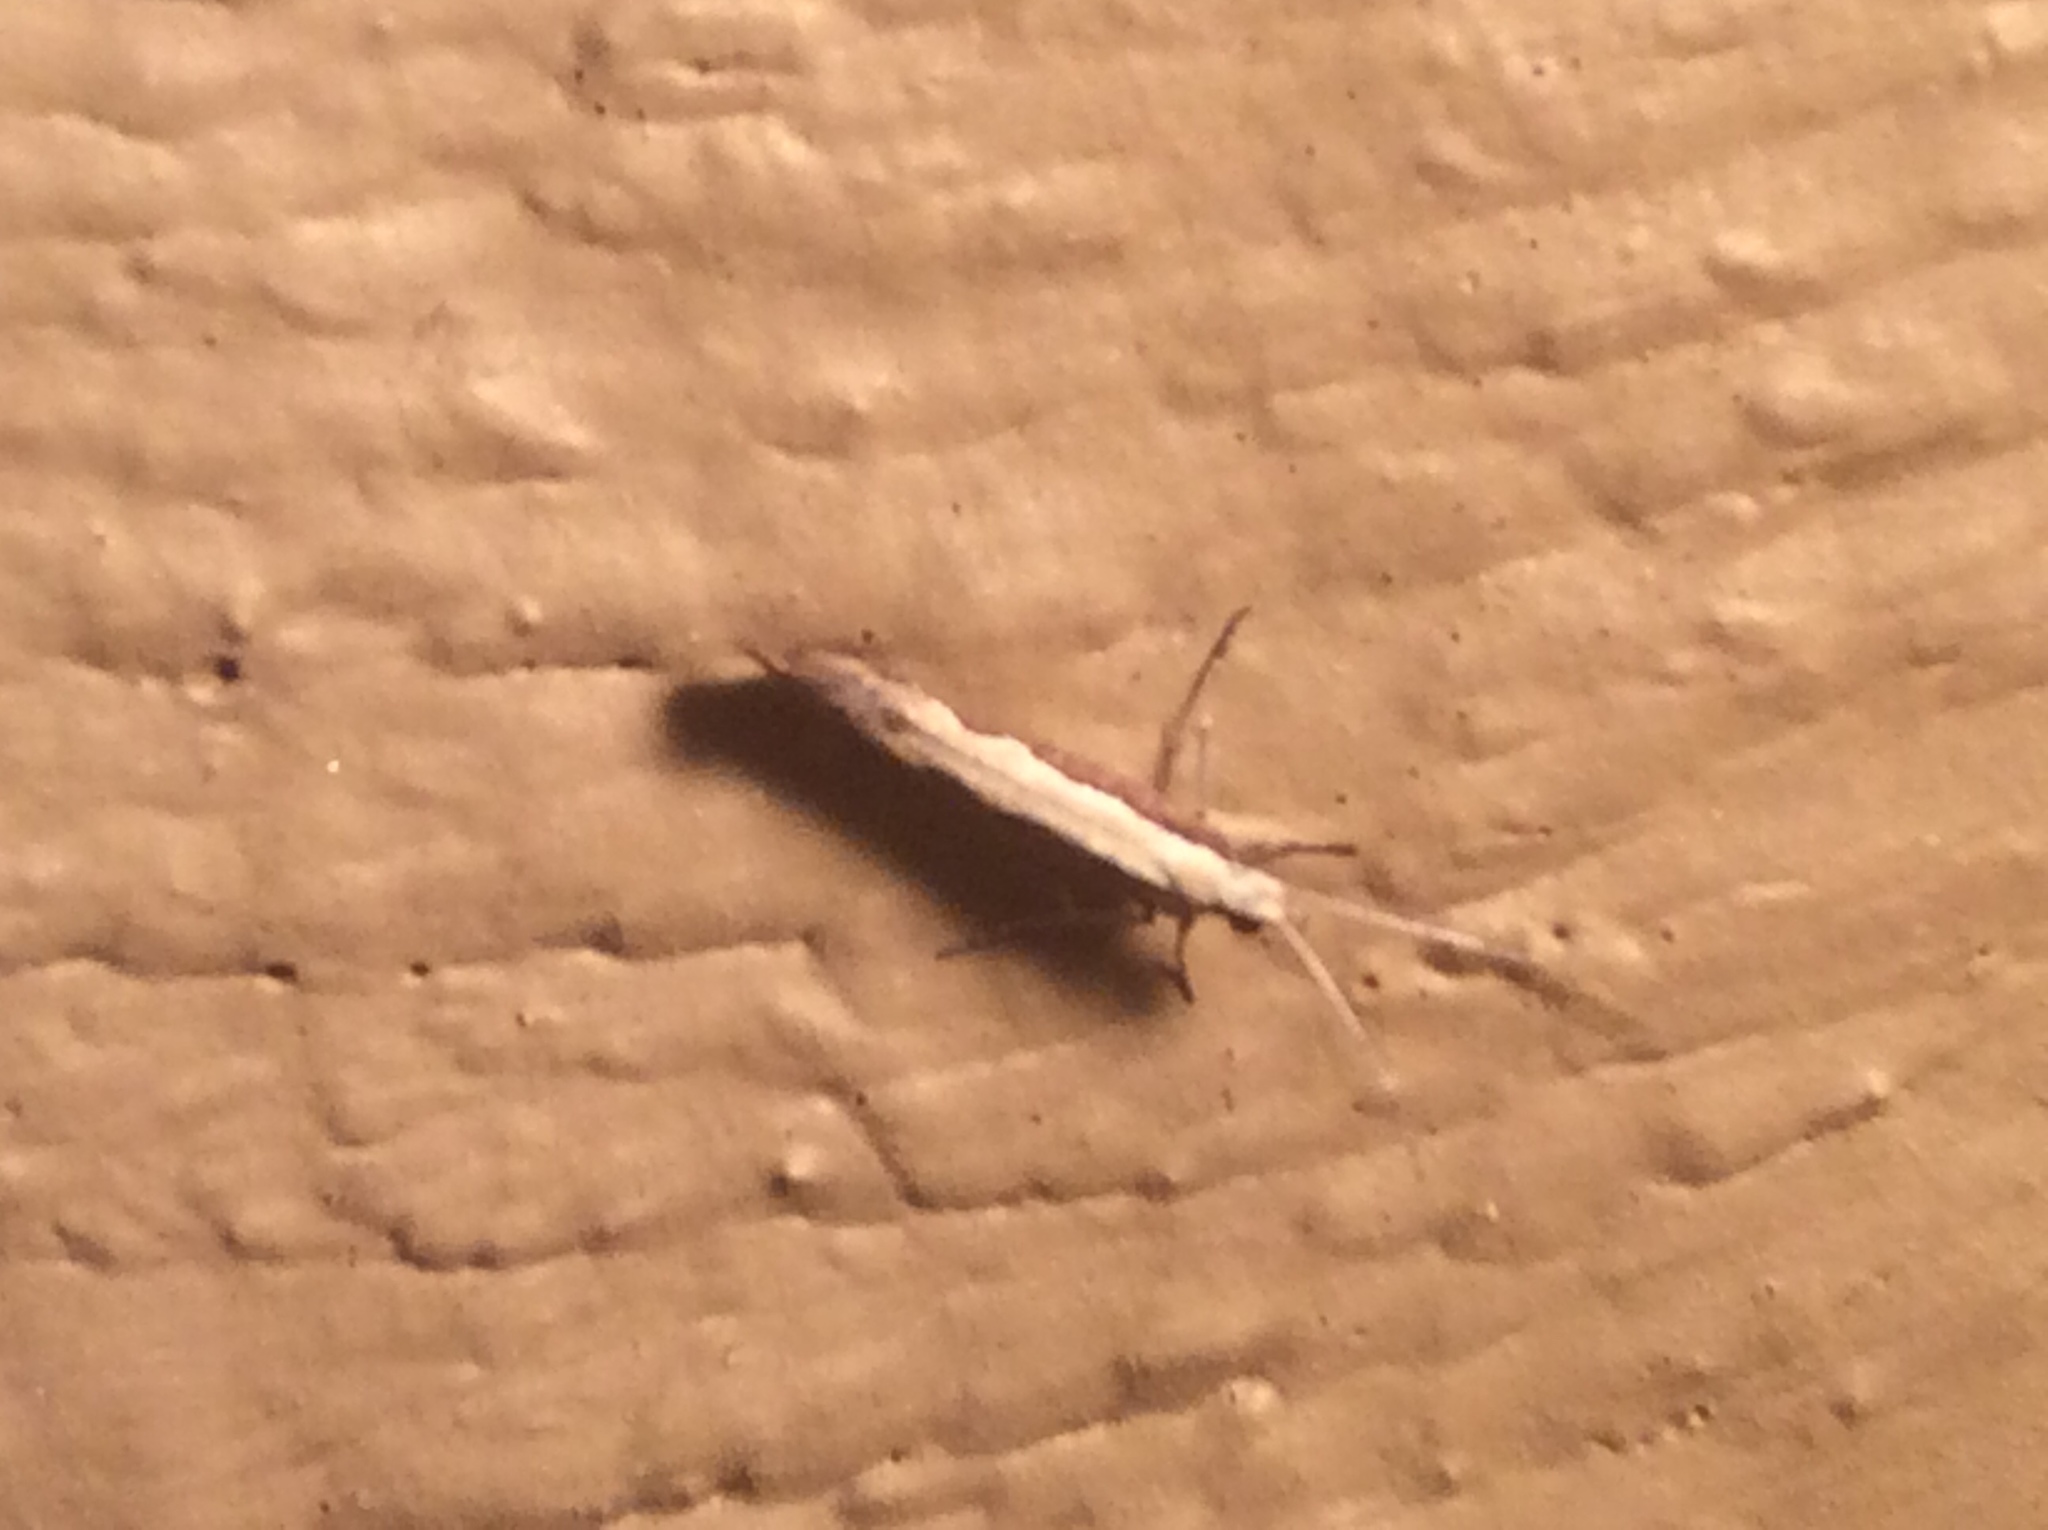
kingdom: Animalia
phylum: Arthropoda
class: Insecta
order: Lepidoptera
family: Plutellidae
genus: Plutella
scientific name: Plutella xylostella
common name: Diamond-back moth
